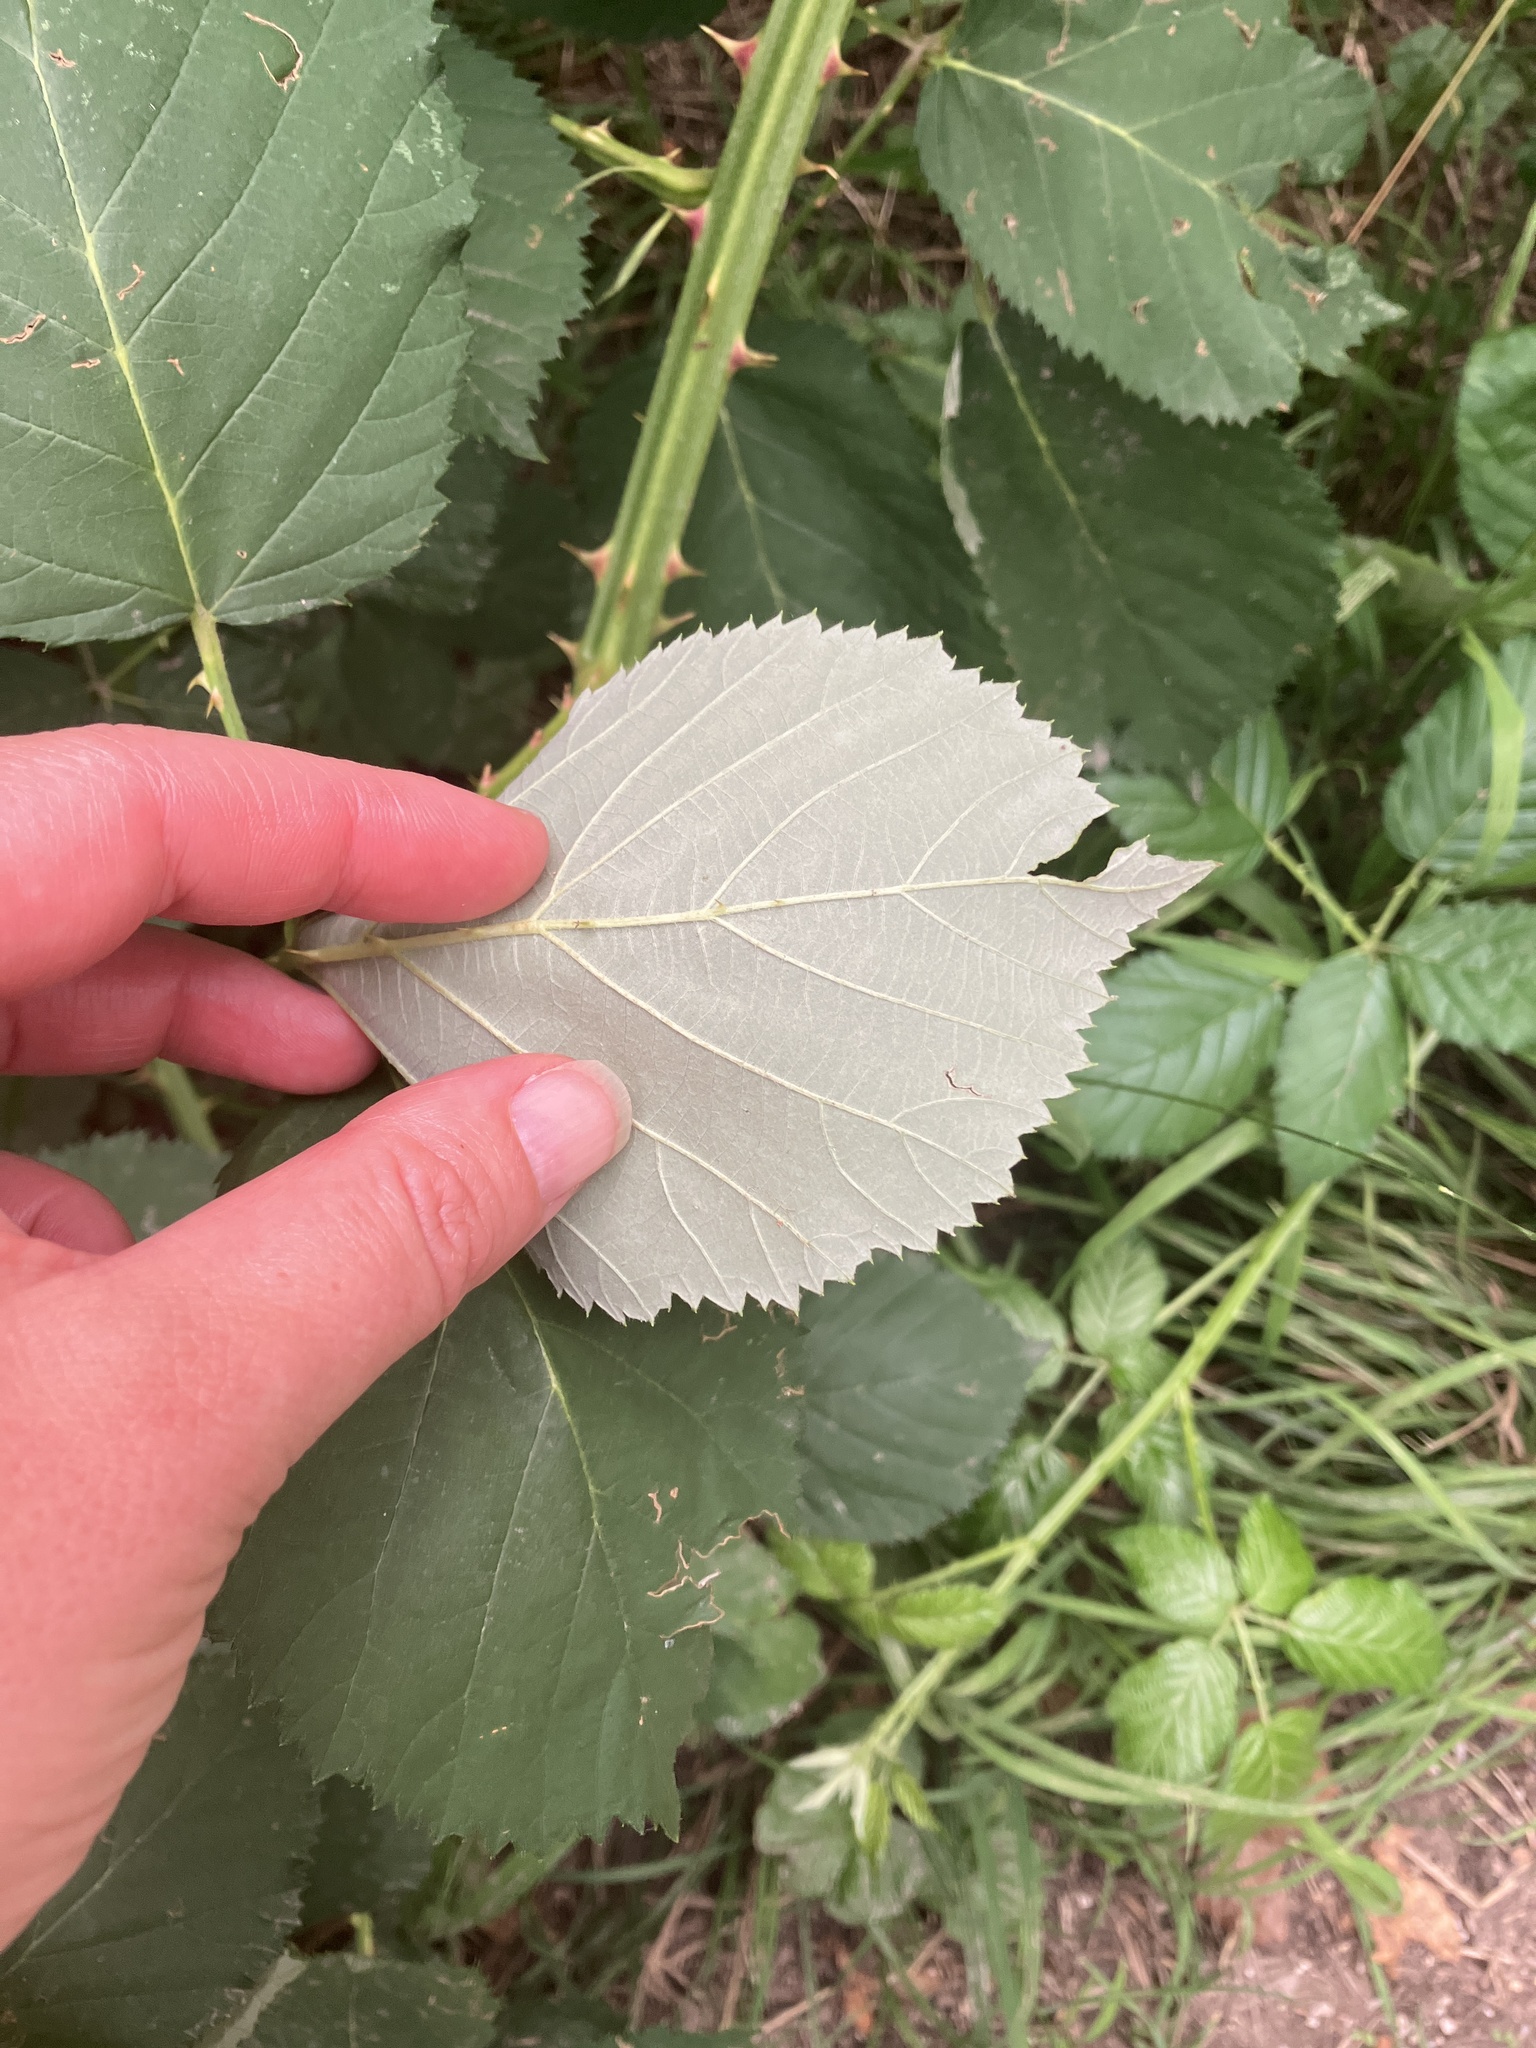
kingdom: Plantae
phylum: Tracheophyta
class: Magnoliopsida
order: Rosales
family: Rosaceae
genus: Rubus
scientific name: Rubus armeniacus
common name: Himalayan blackberry
